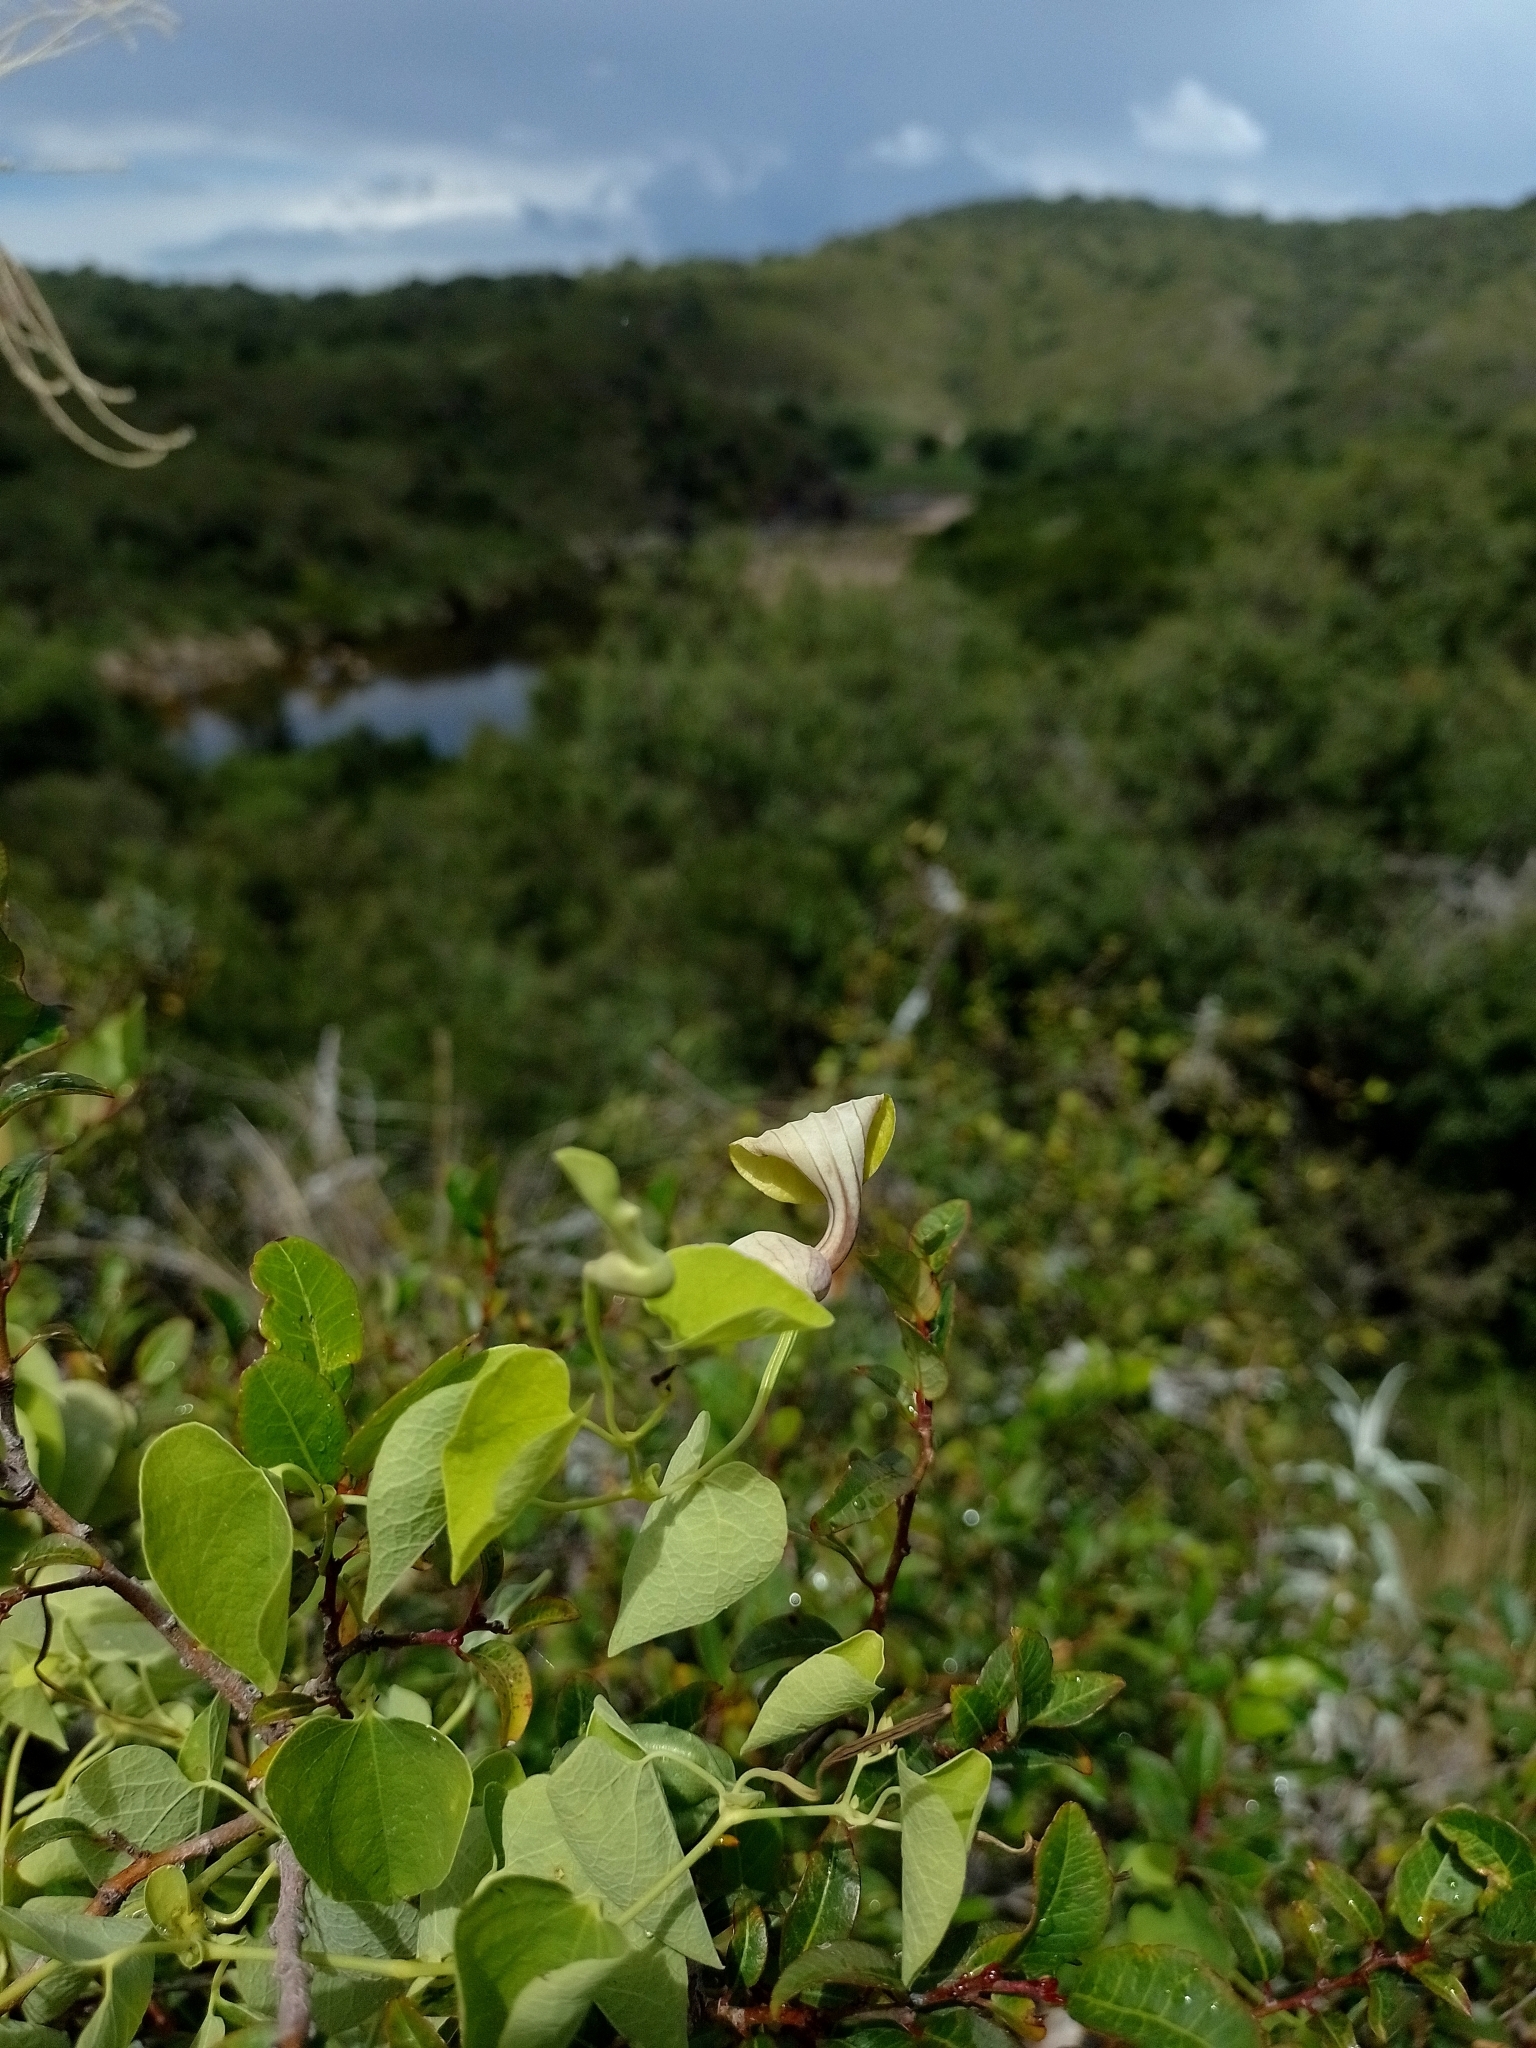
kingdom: Plantae
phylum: Tracheophyta
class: Magnoliopsida
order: Piperales
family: Aristolochiaceae
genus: Aristolochia
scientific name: Aristolochia argentina
